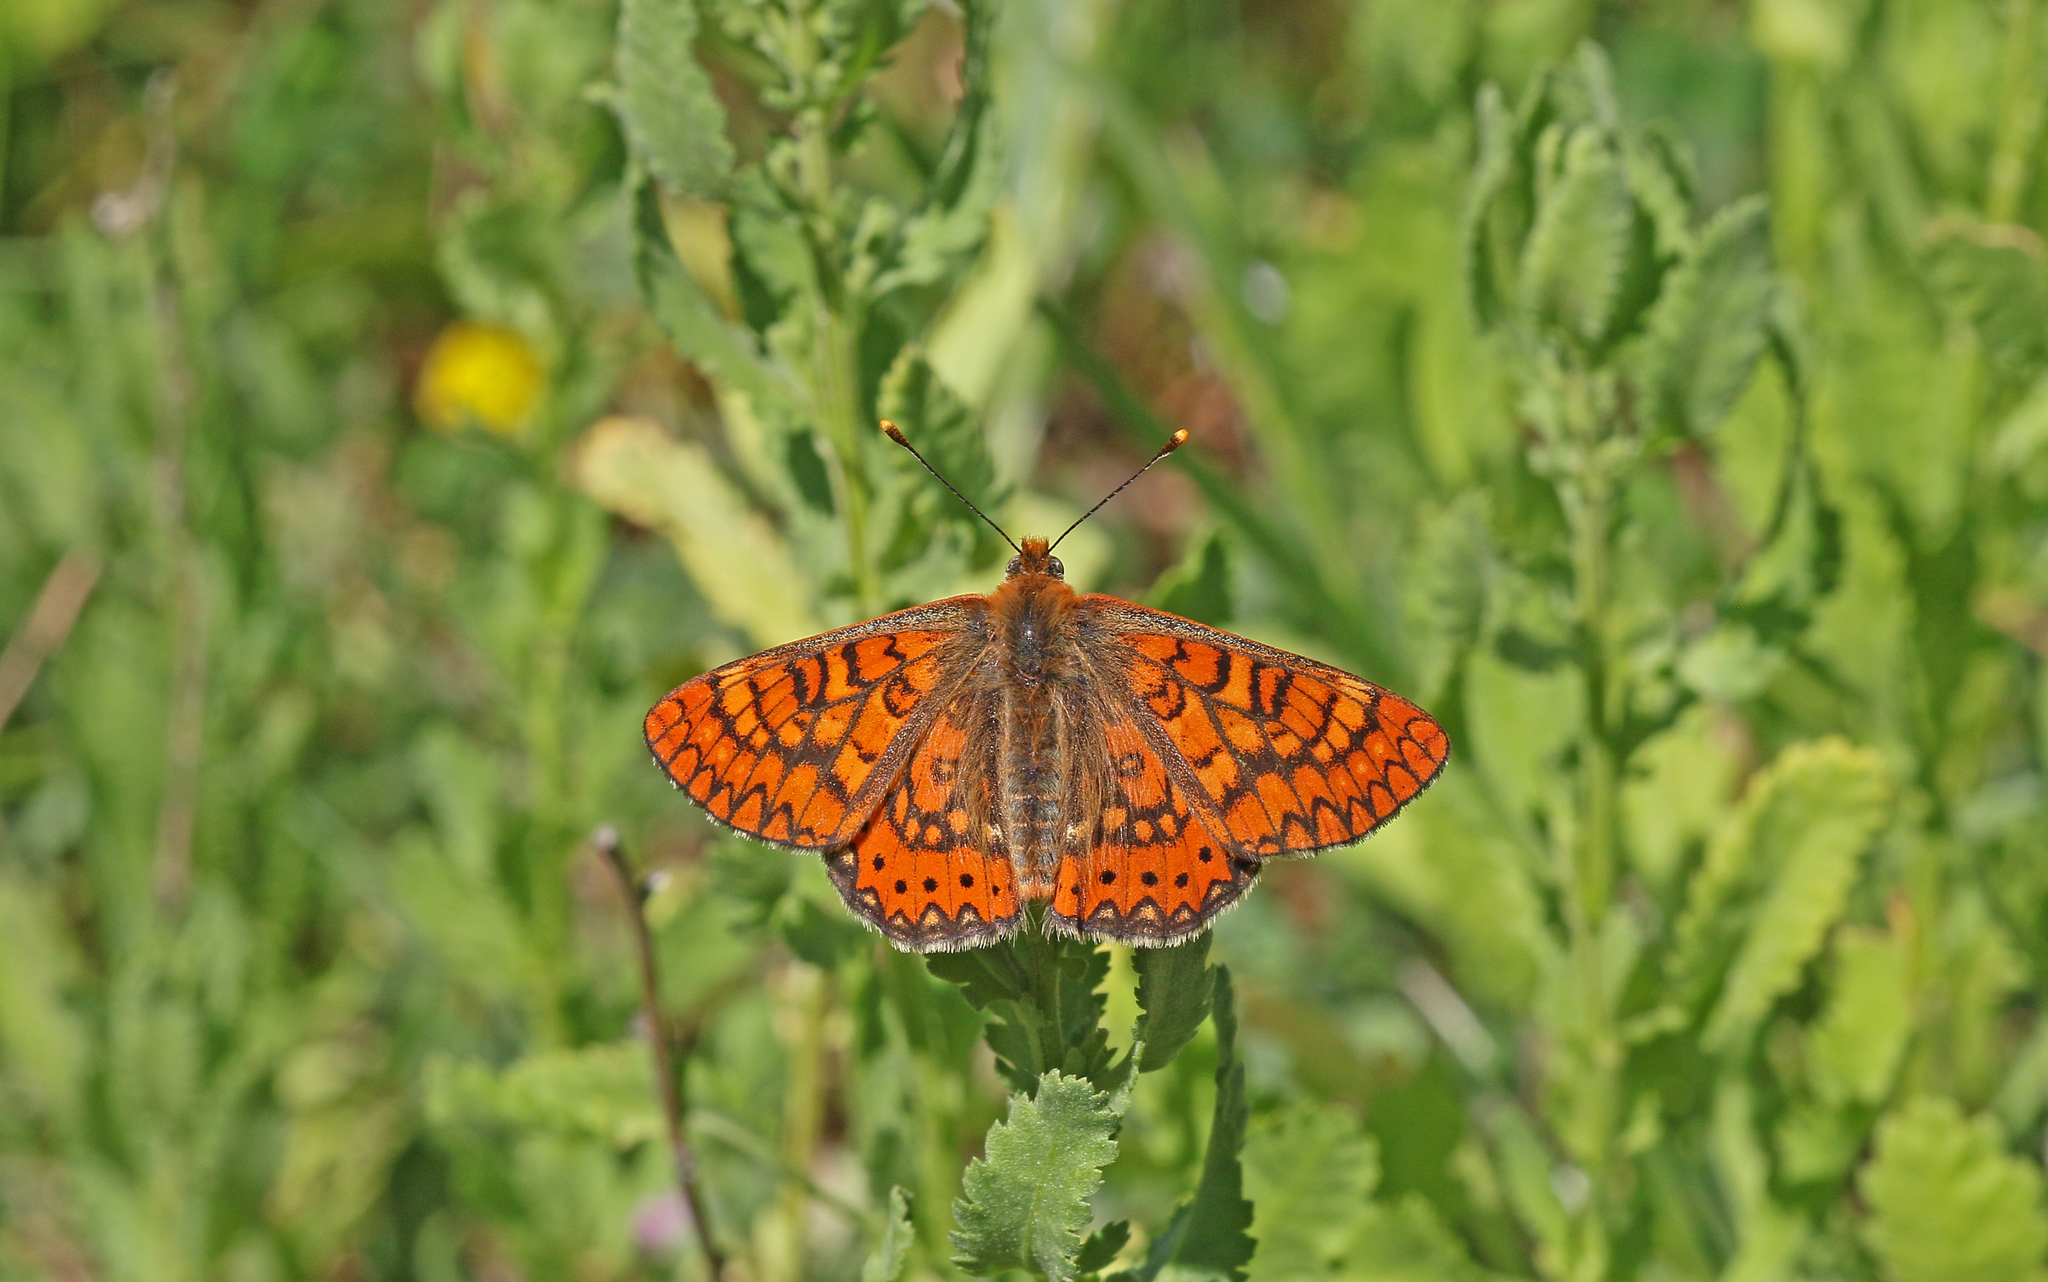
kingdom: Animalia
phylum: Arthropoda
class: Insecta
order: Lepidoptera
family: Nymphalidae
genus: Euphydryas
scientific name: Euphydryas aurinia
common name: Marsh fritillary
